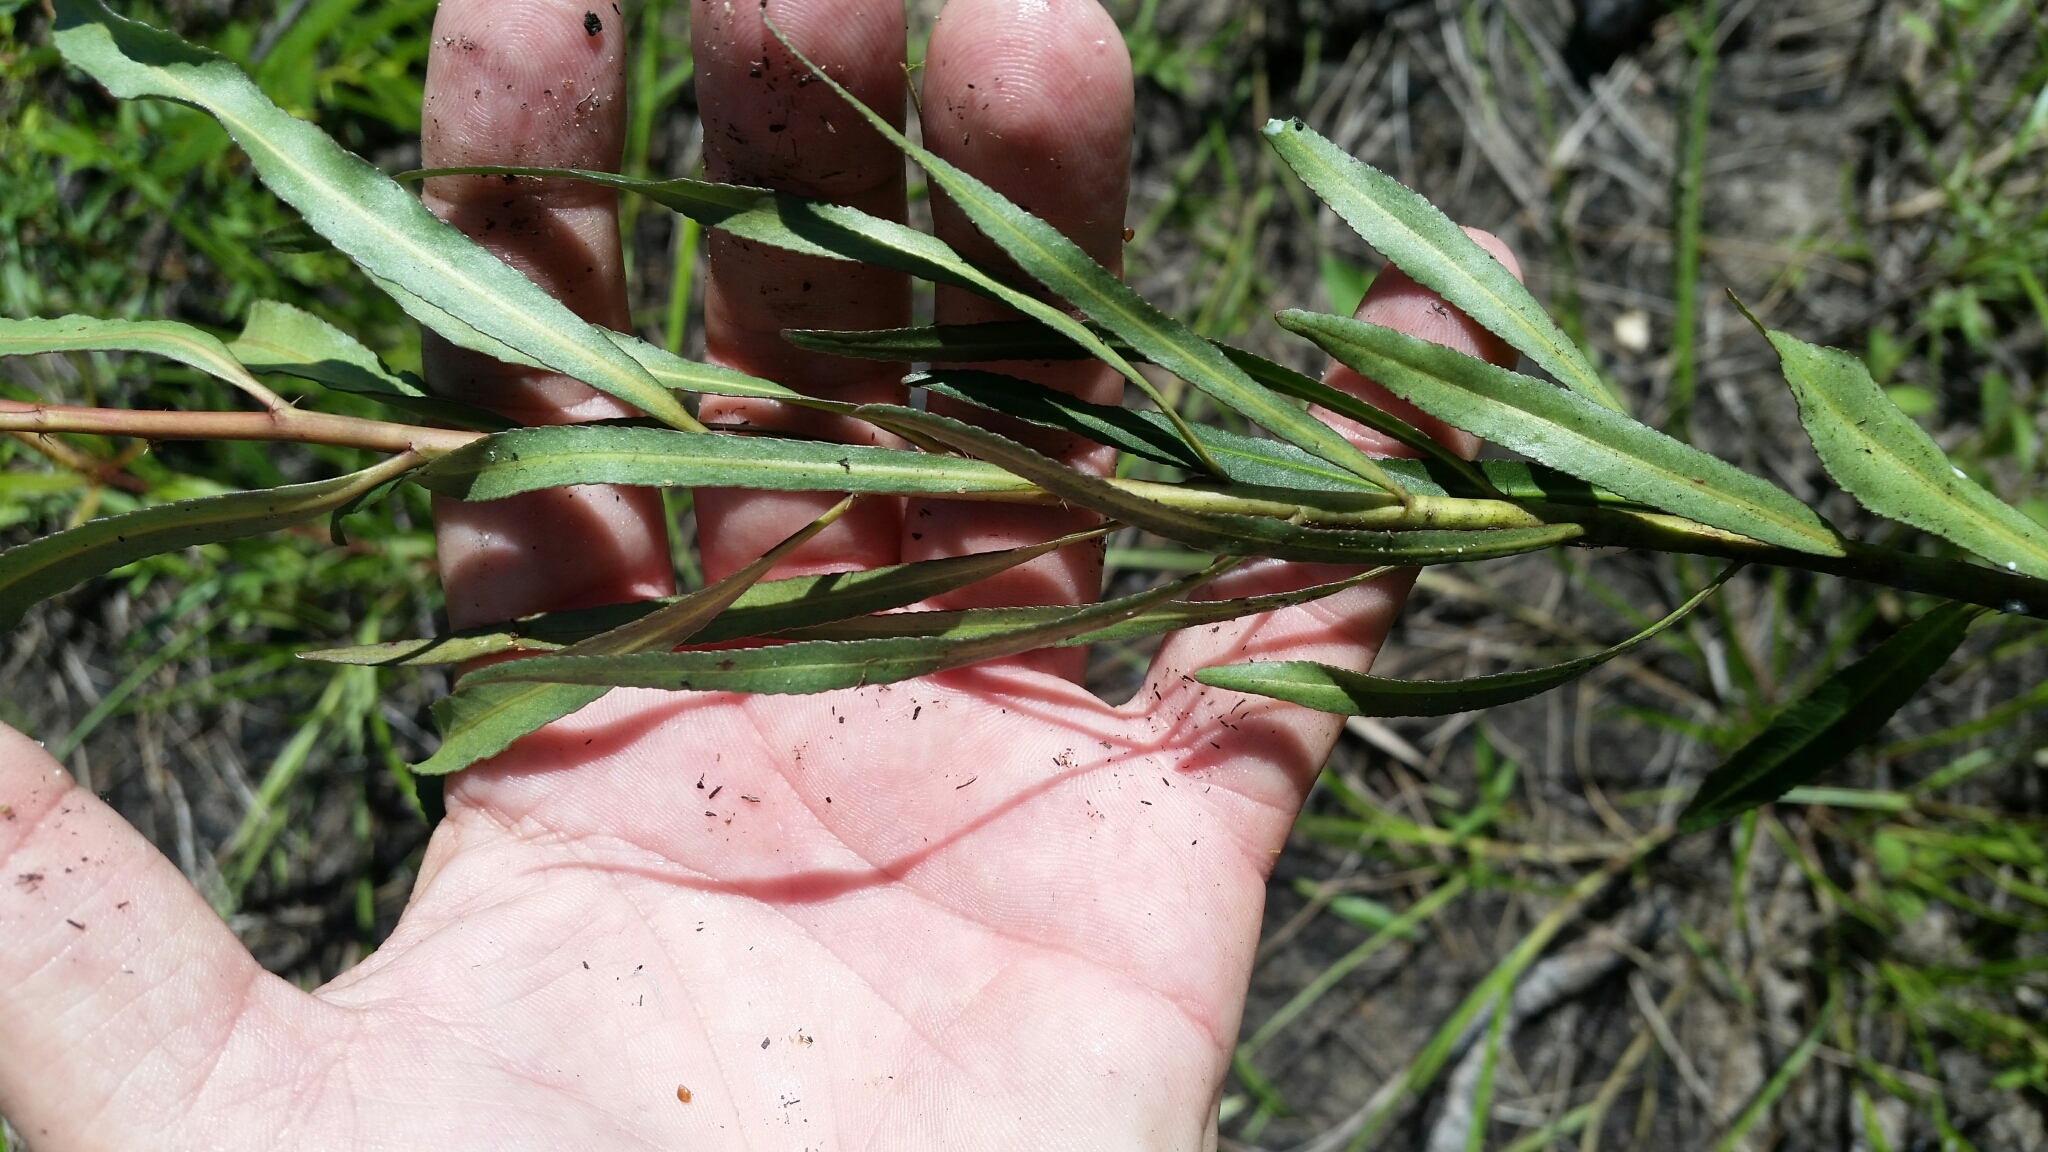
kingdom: Plantae
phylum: Tracheophyta
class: Magnoliopsida
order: Malpighiales
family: Euphorbiaceae
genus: Stillingia
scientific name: Stillingia sylvatica
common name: Queen's-delight
